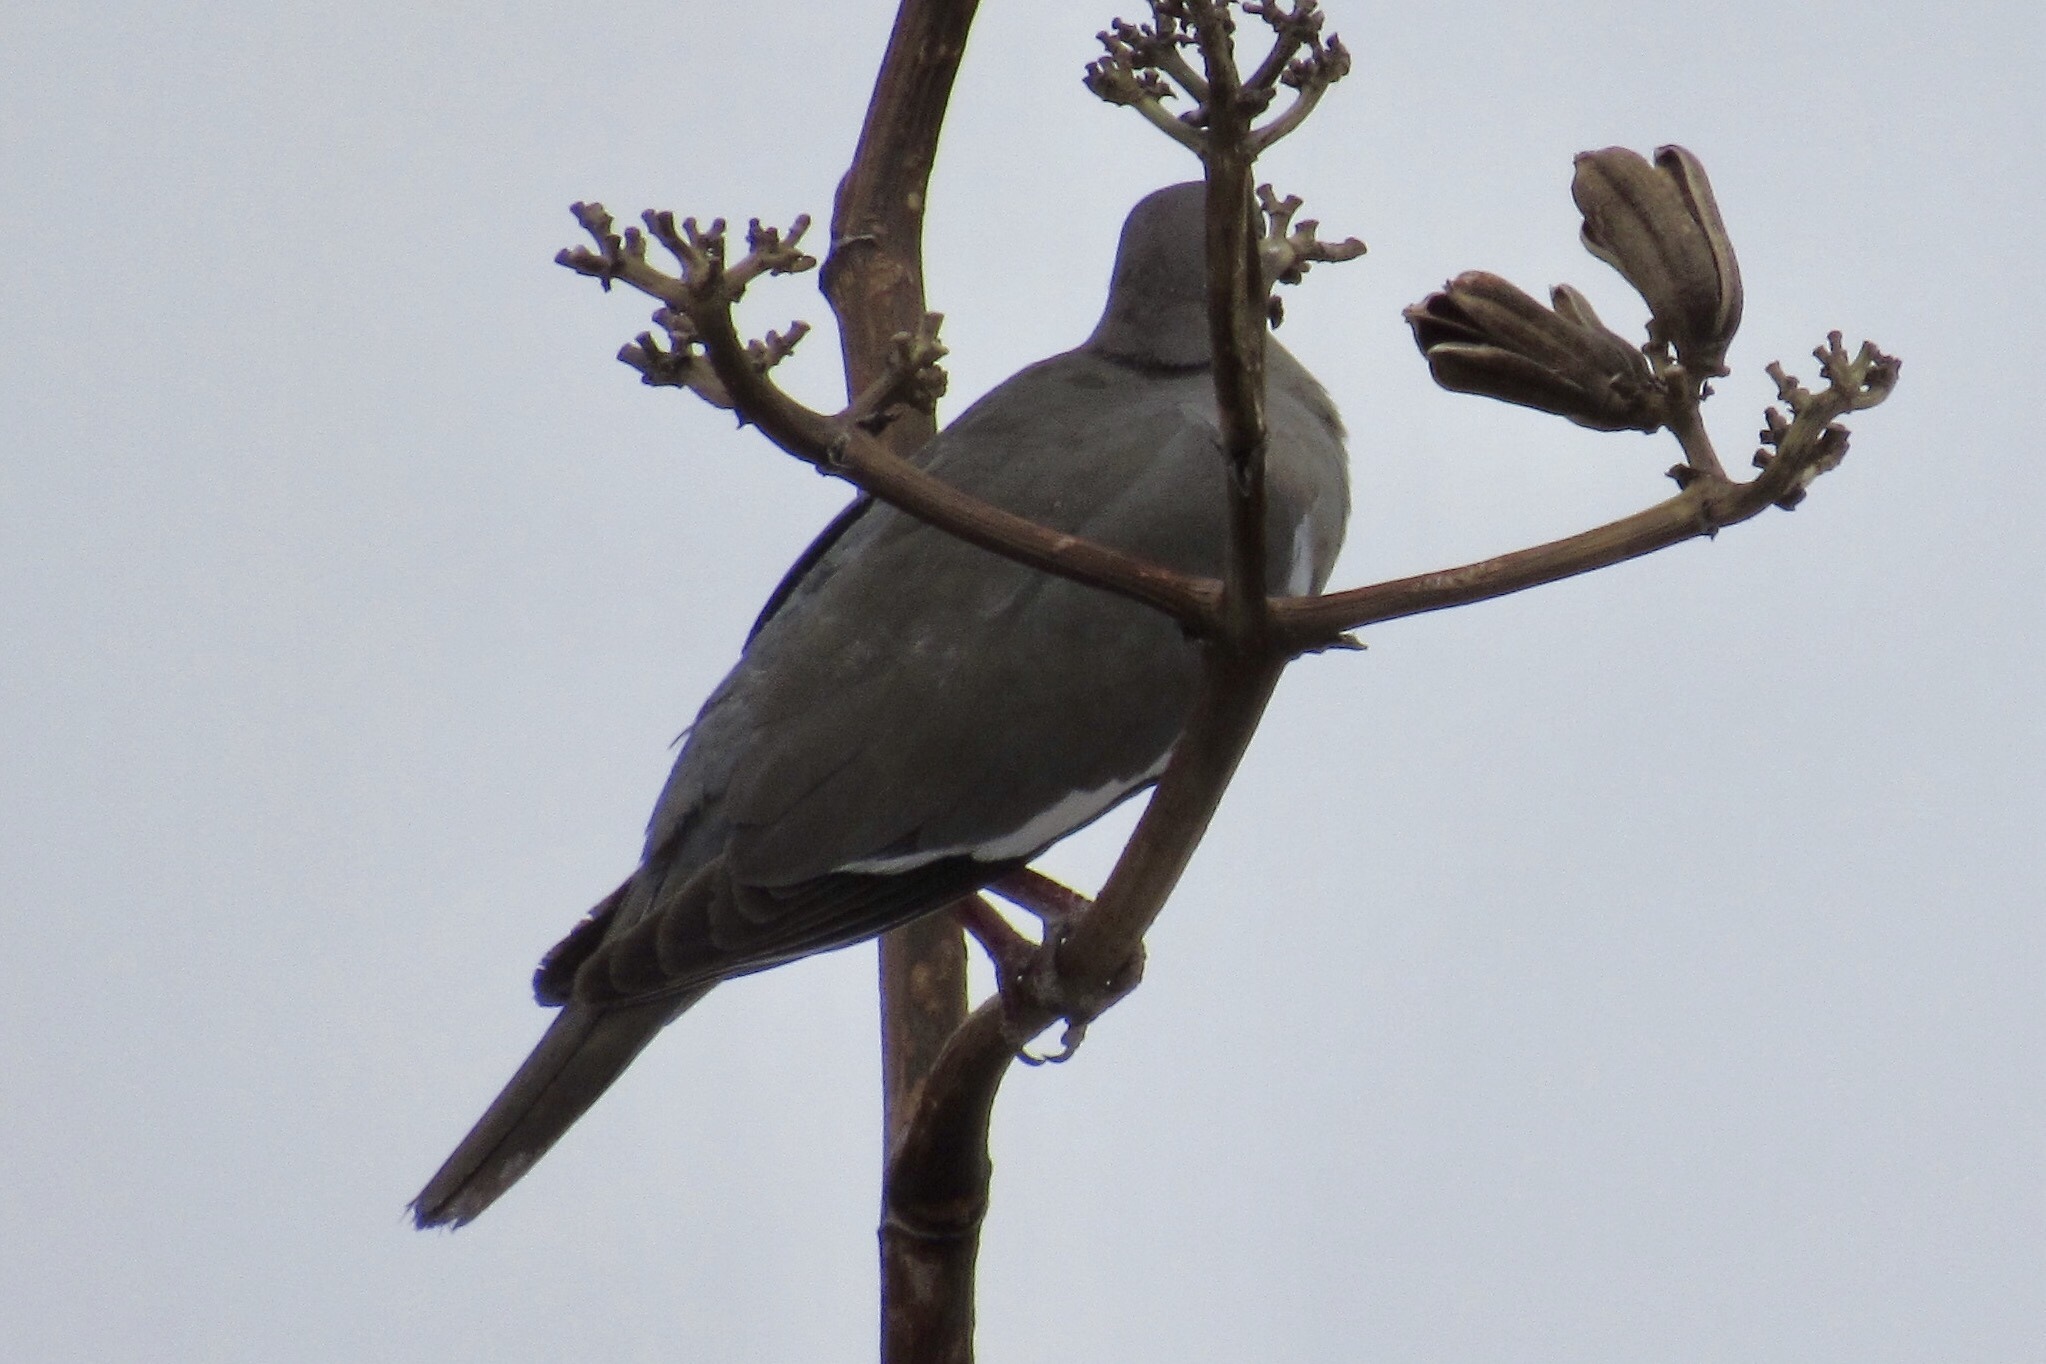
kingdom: Animalia
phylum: Chordata
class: Aves
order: Columbiformes
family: Columbidae
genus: Zenaida
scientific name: Zenaida asiatica
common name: White-winged dove
